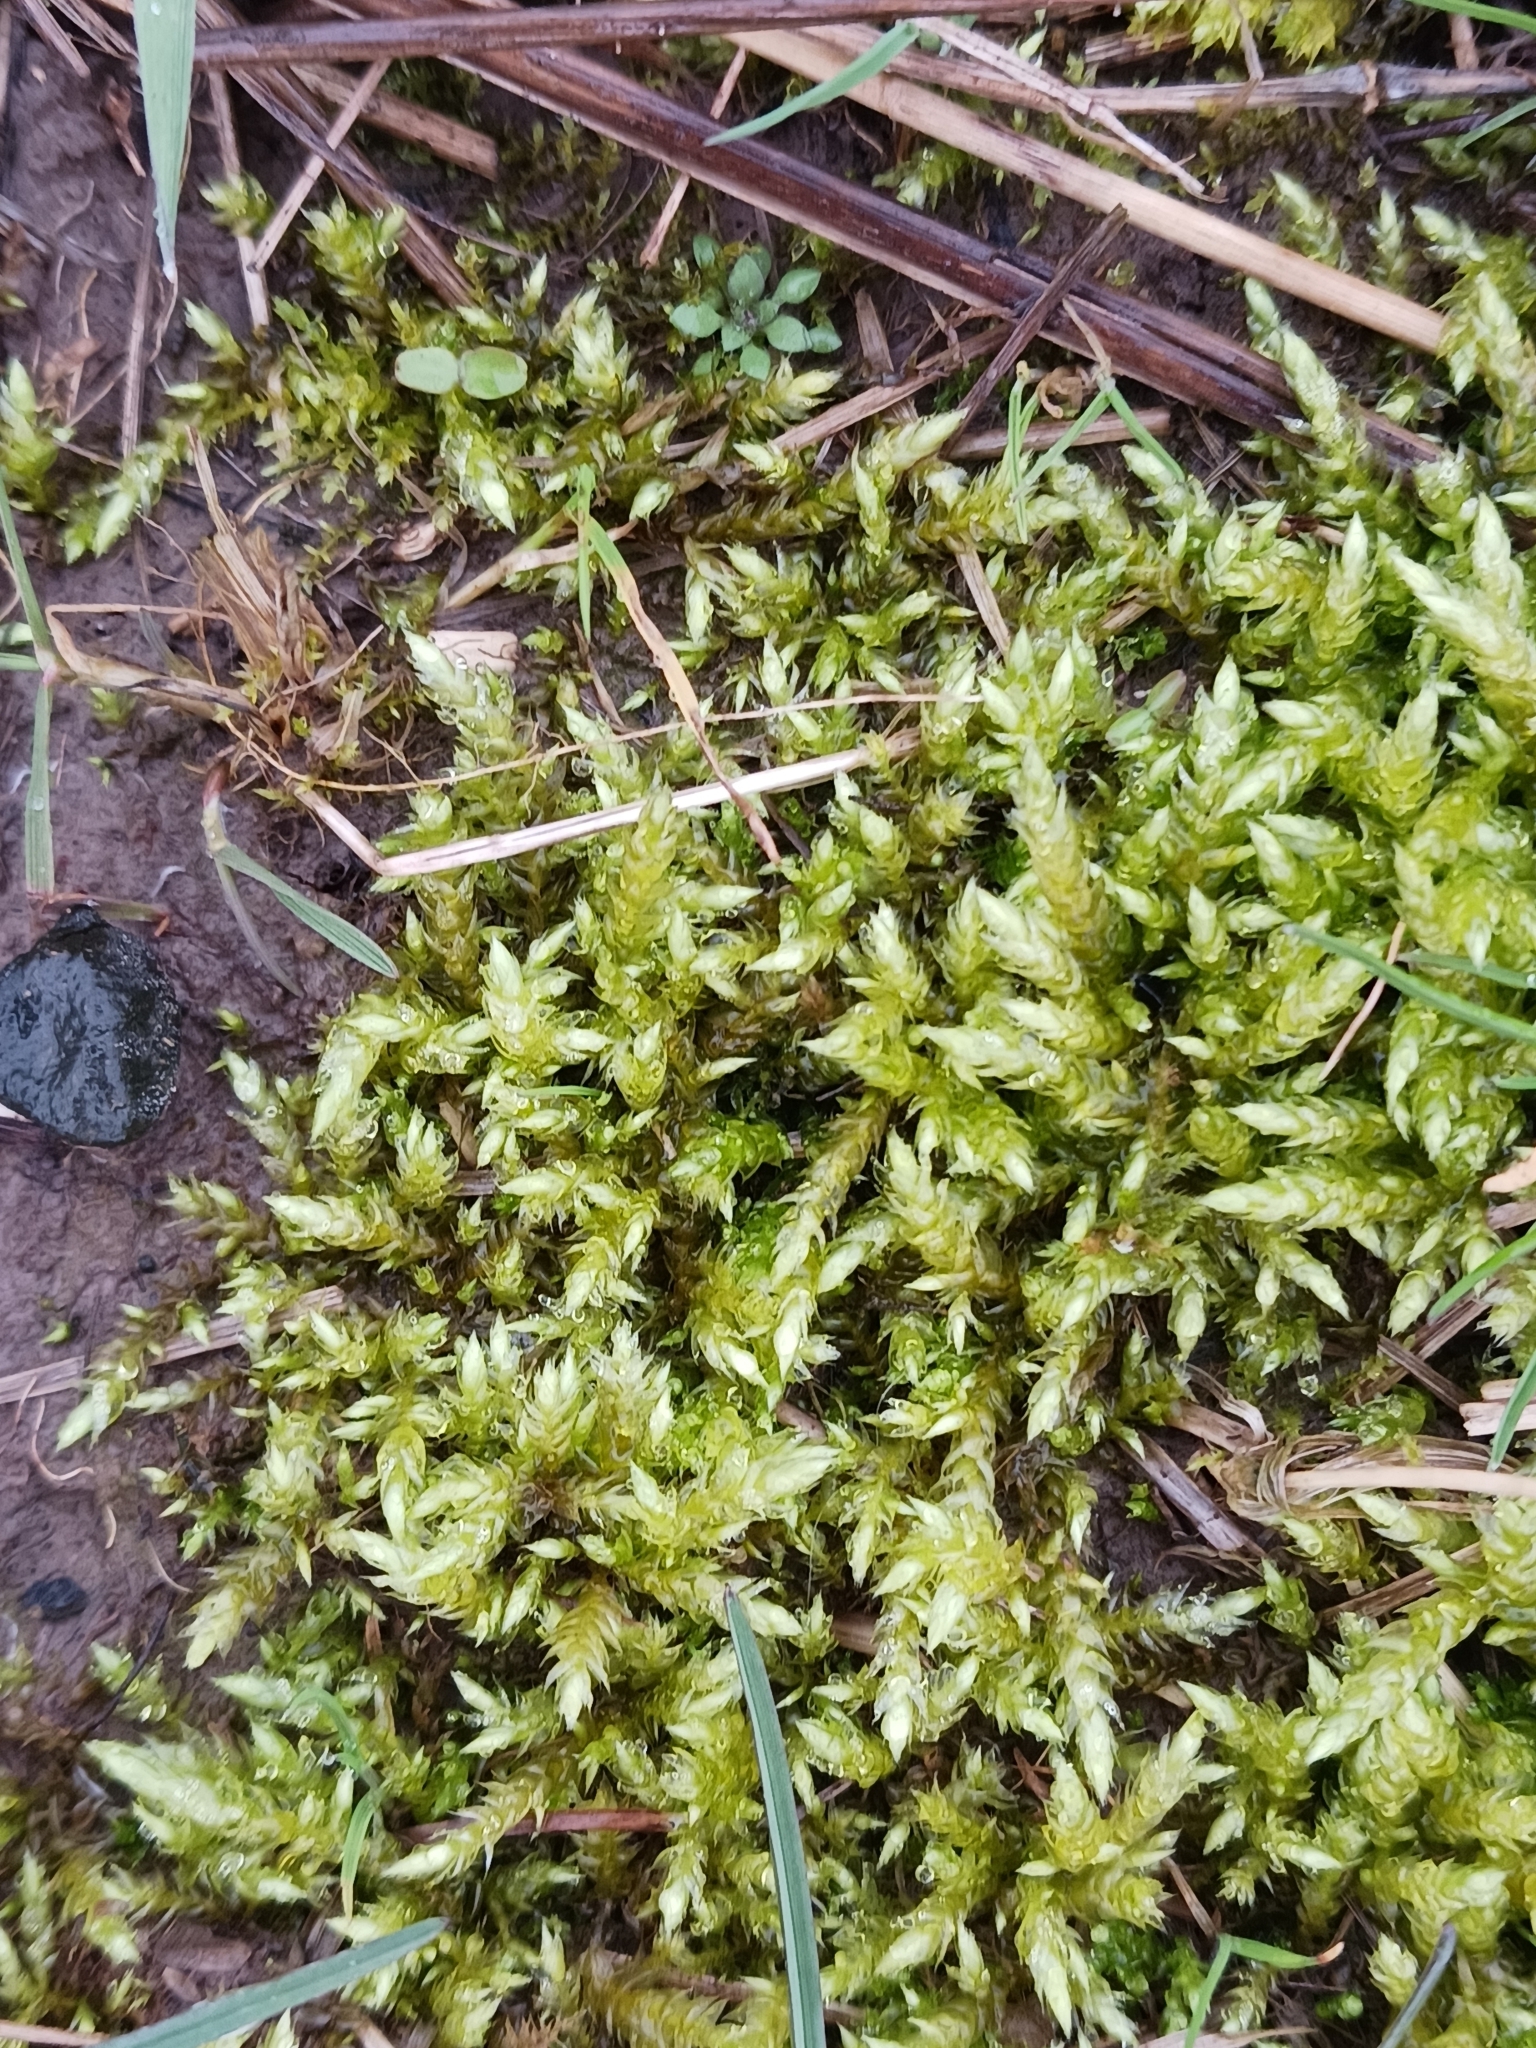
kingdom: Plantae
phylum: Bryophyta
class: Bryopsida
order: Hypnales
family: Brachytheciaceae
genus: Brachythecium
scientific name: Brachythecium rutabulum
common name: Rough-stalked feather-moss
